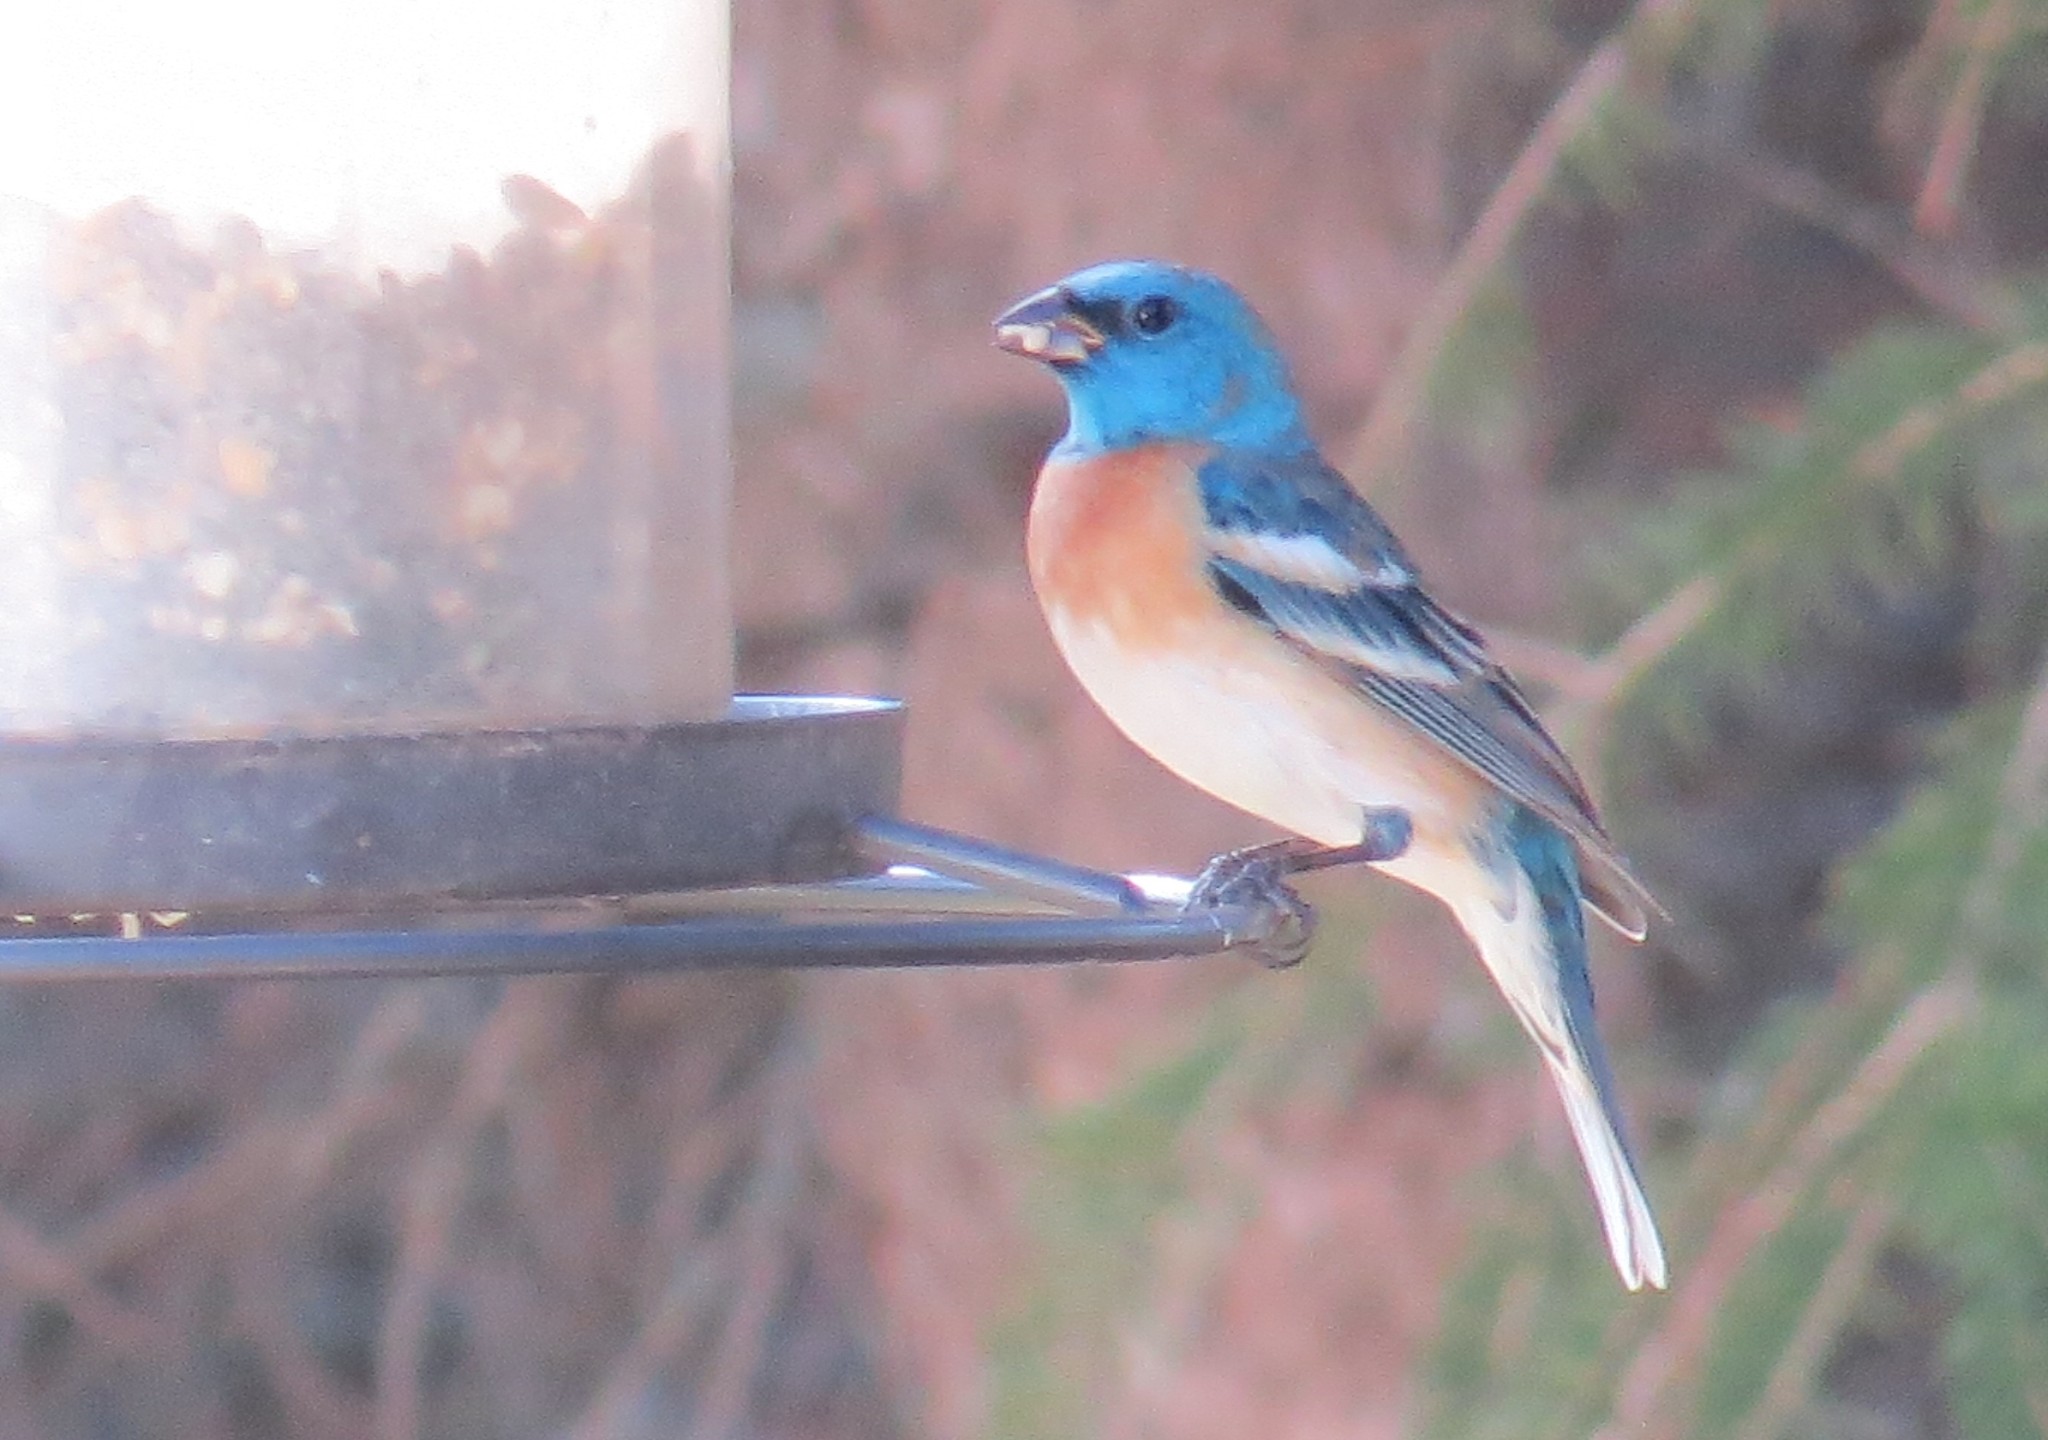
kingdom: Animalia
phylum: Chordata
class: Aves
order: Passeriformes
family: Cardinalidae
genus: Passerina
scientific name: Passerina amoena
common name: Lazuli bunting
